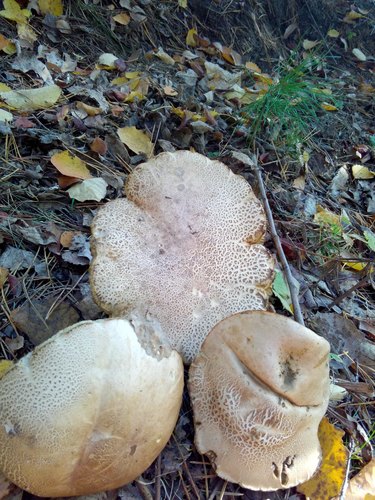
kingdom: Fungi
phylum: Basidiomycota
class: Agaricomycetes
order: Boletales
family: Boletaceae
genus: Leccinum
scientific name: Leccinum
